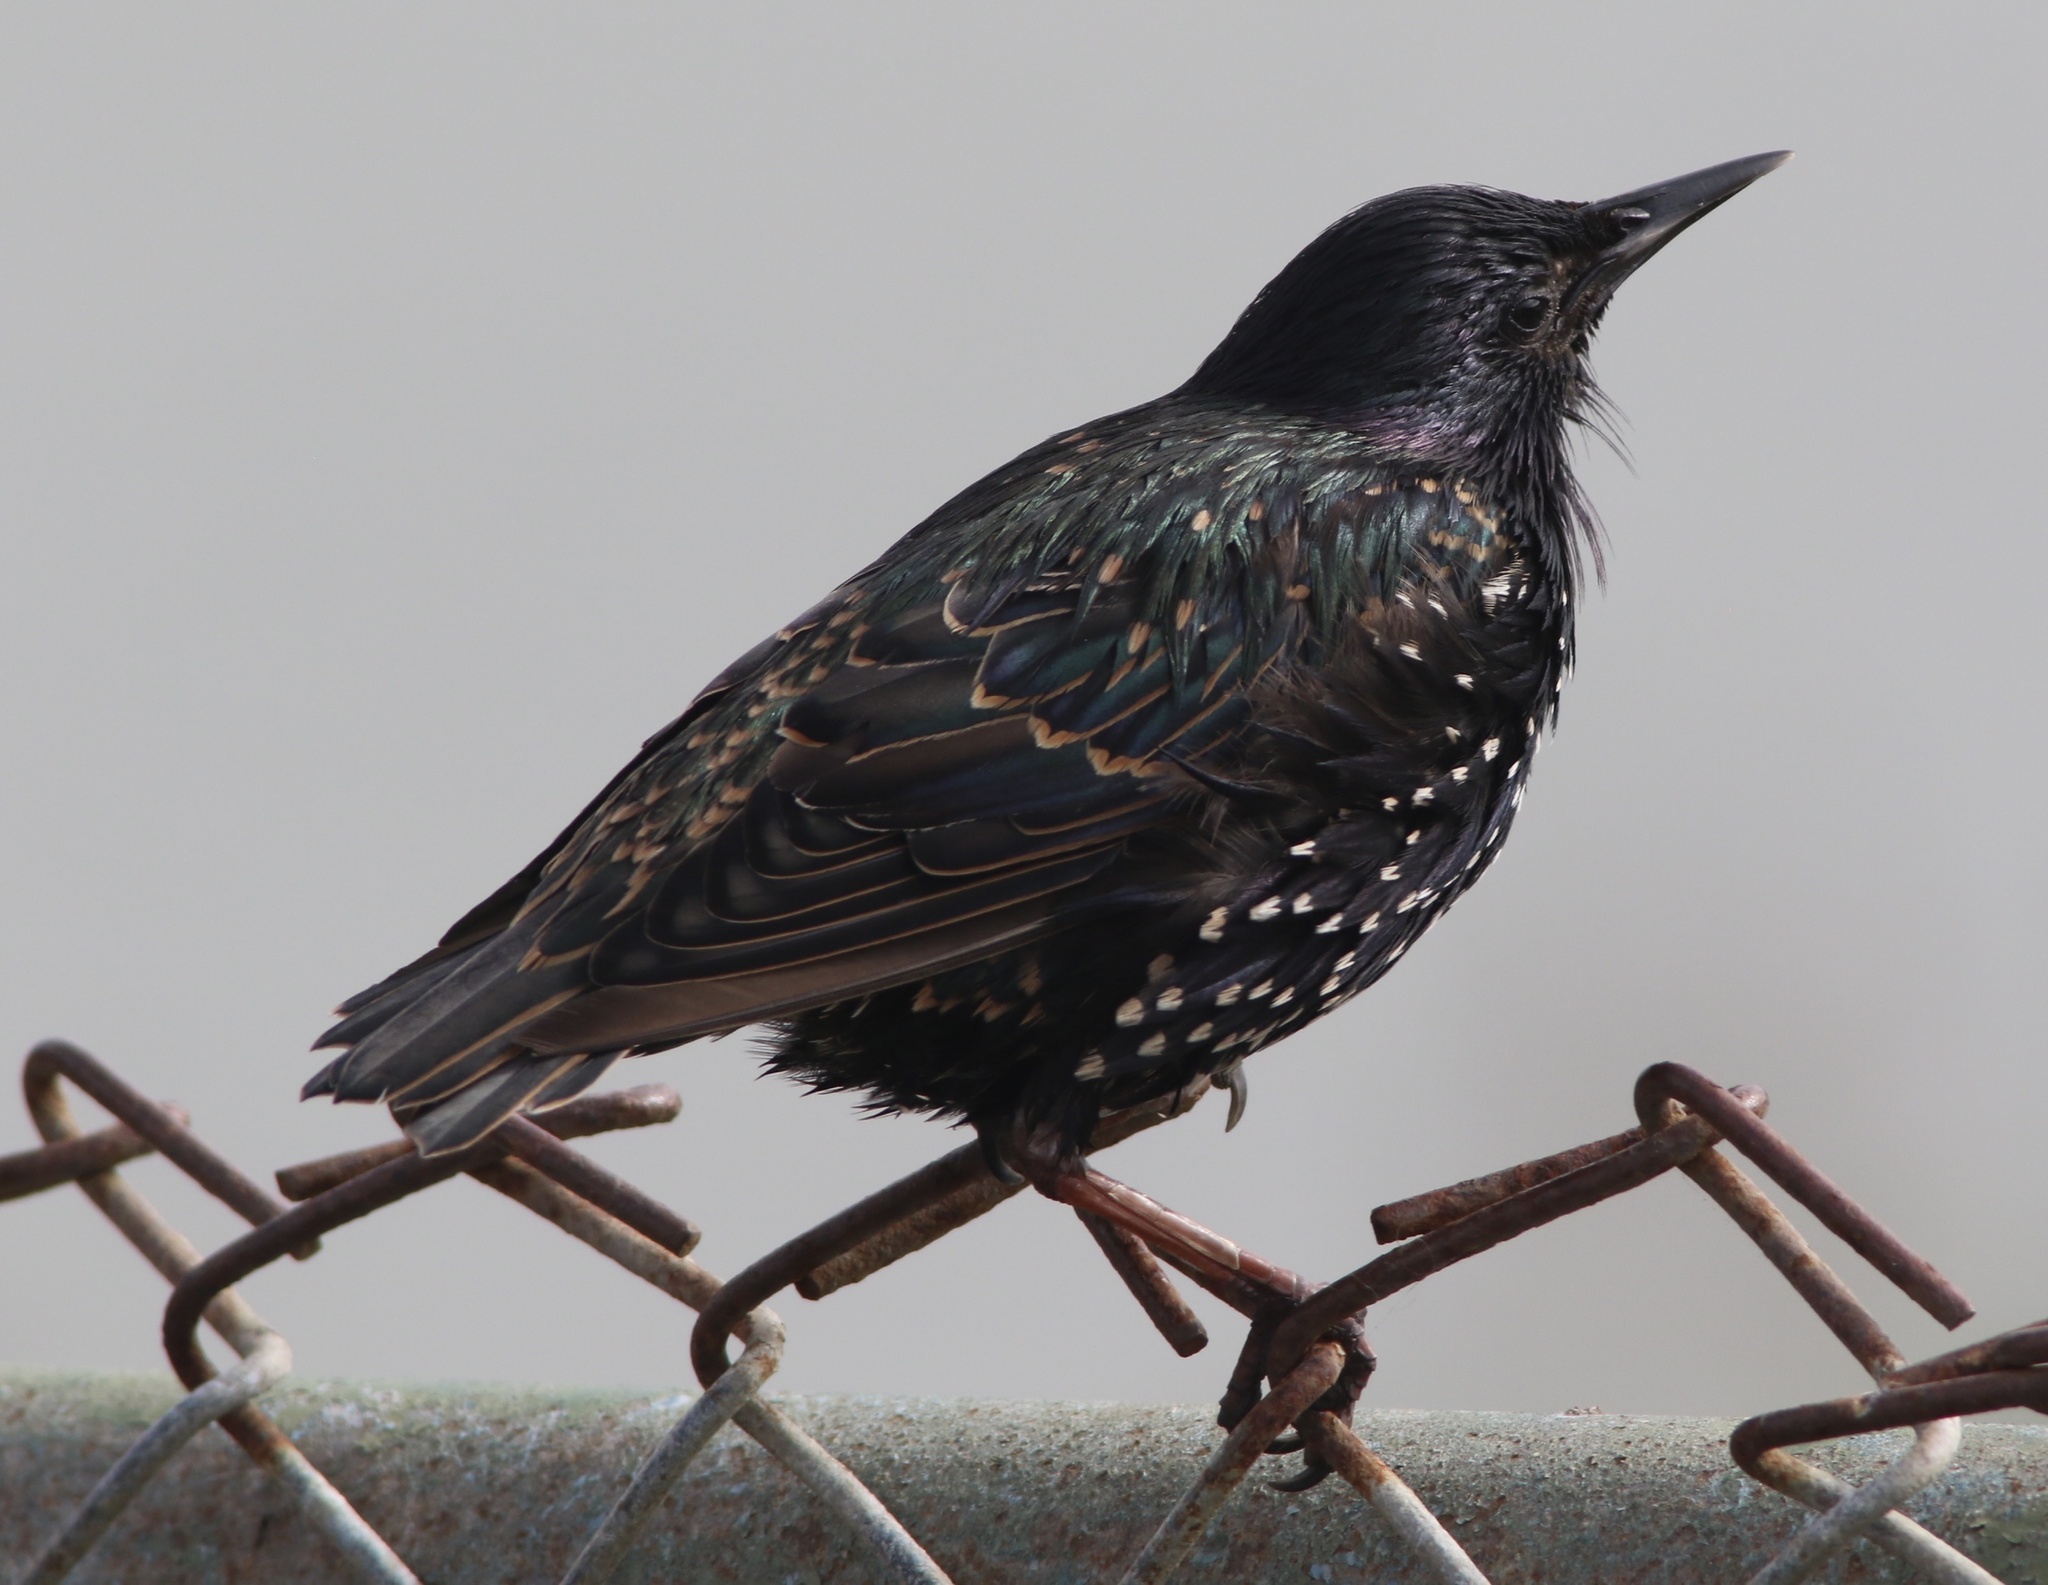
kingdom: Animalia
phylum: Chordata
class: Aves
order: Passeriformes
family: Sturnidae
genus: Sturnus
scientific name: Sturnus vulgaris
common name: Common starling
